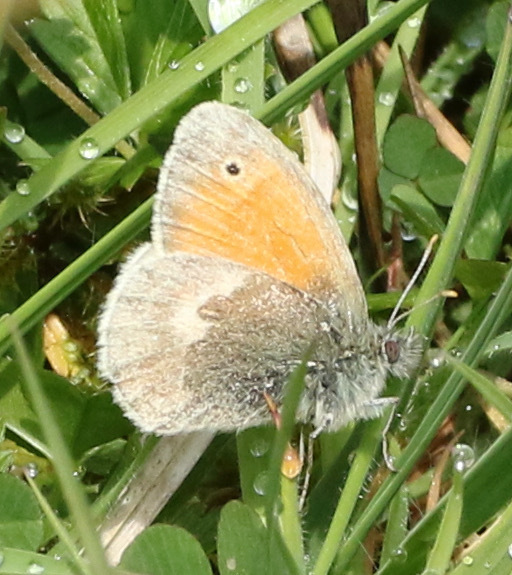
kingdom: Animalia
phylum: Arthropoda
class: Insecta
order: Lepidoptera
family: Nymphalidae
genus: Coenonympha
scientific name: Coenonympha pamphilus
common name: Small heath
